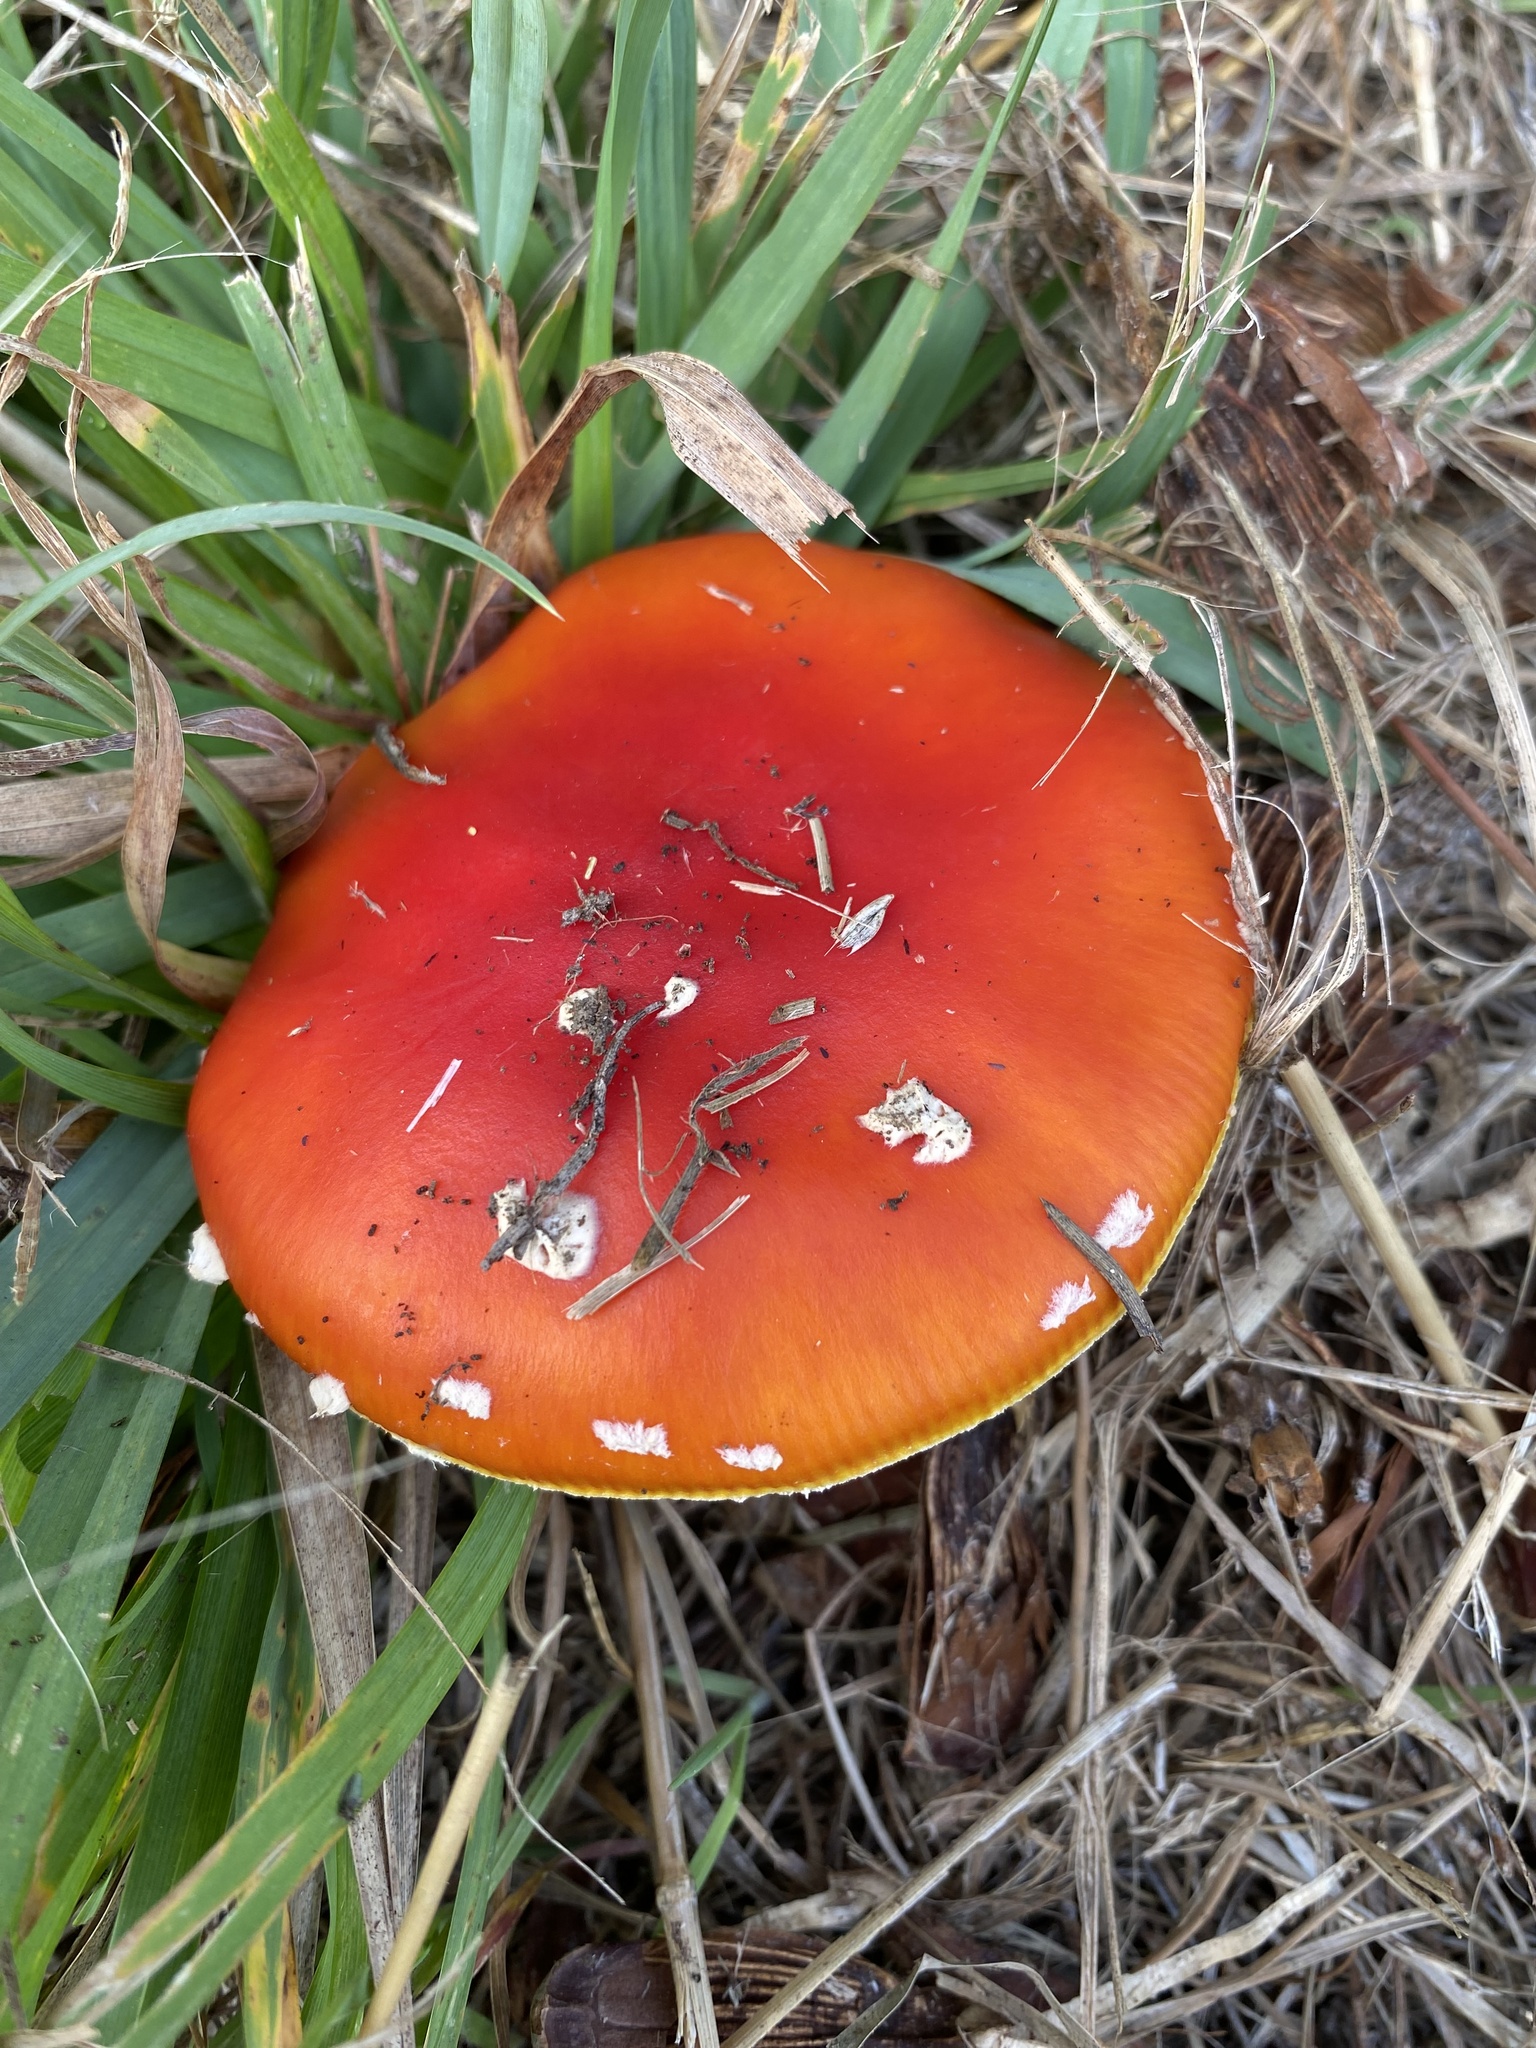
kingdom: Fungi
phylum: Basidiomycota
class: Agaricomycetes
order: Agaricales
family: Amanitaceae
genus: Amanita
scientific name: Amanita muscaria
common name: Fly agaric
